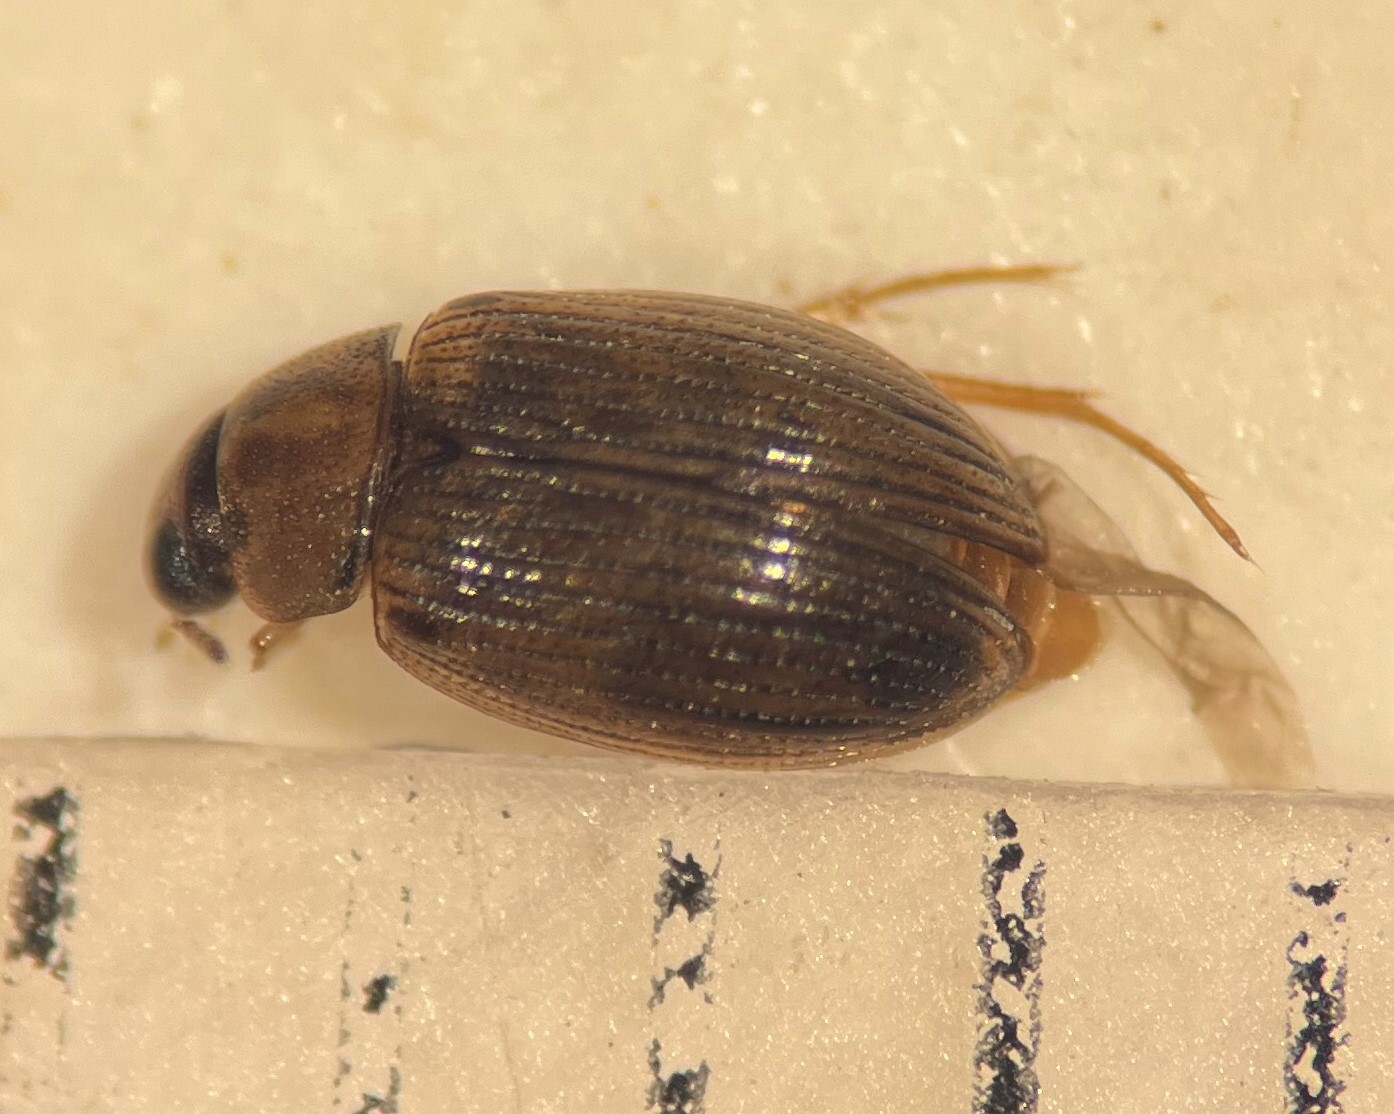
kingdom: Animalia
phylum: Arthropoda
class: Insecta
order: Coleoptera
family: Hydrophilidae
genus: Berosus
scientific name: Berosus exiguus
